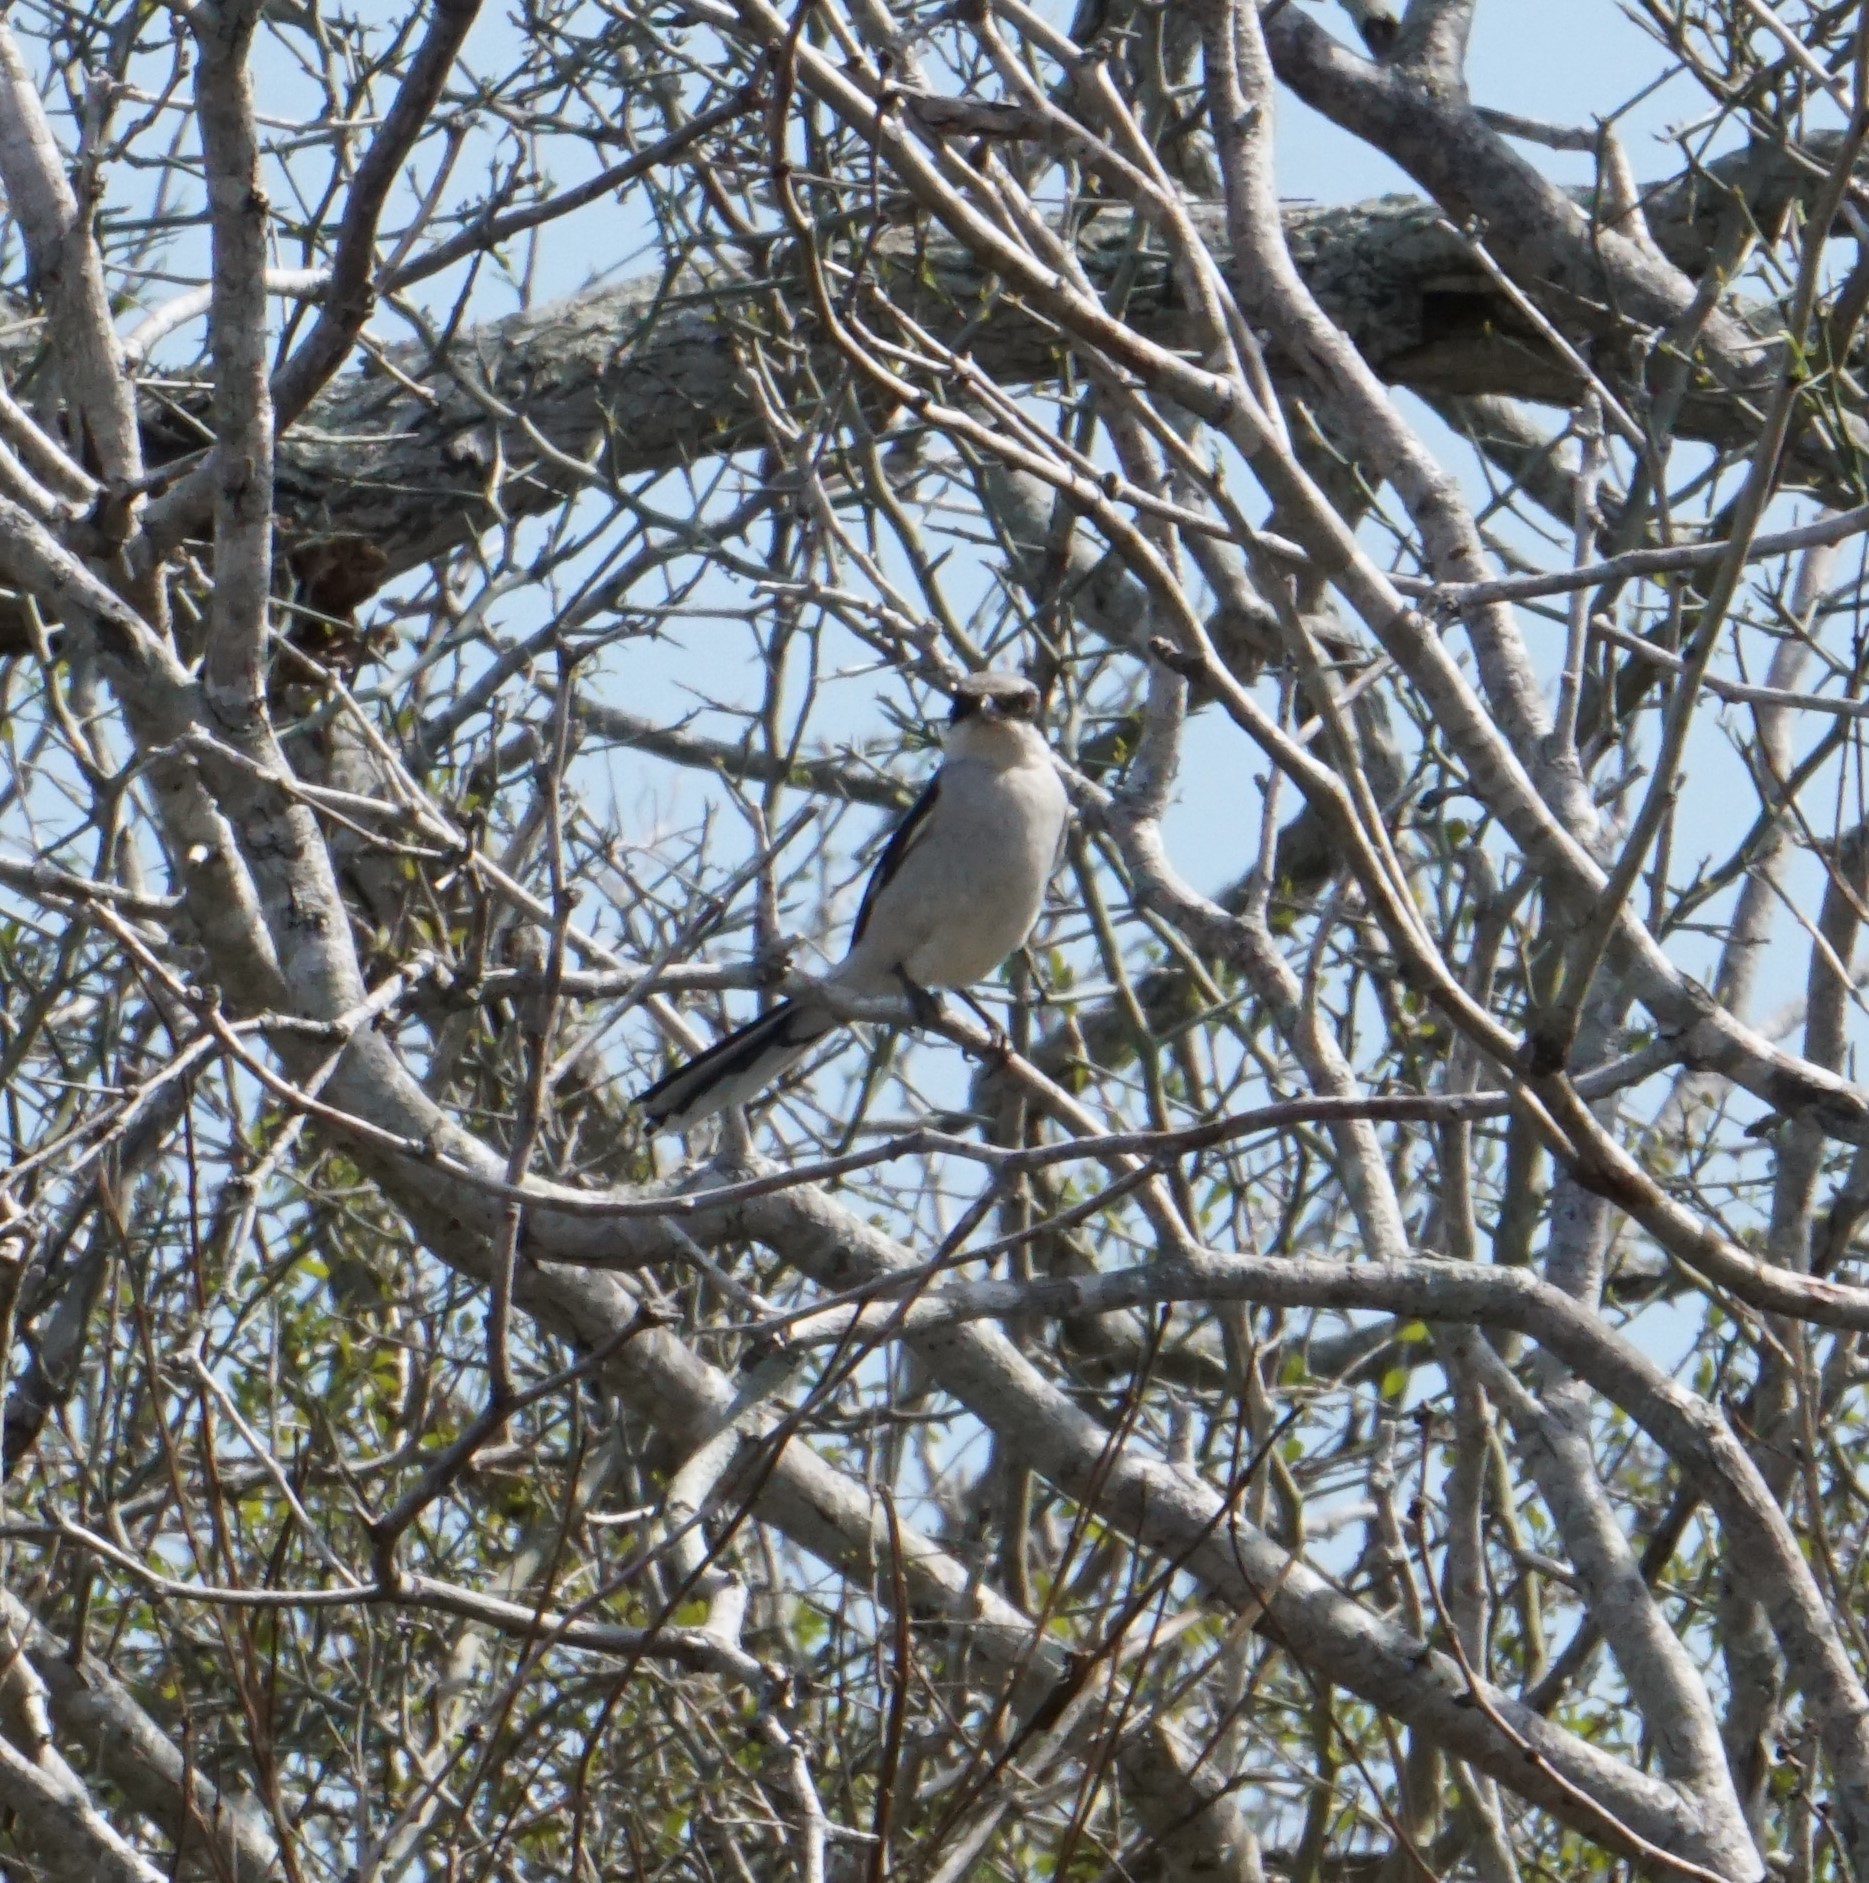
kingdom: Animalia
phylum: Chordata
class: Aves
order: Passeriformes
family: Laniidae
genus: Lanius
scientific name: Lanius ludovicianus
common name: Loggerhead shrike
